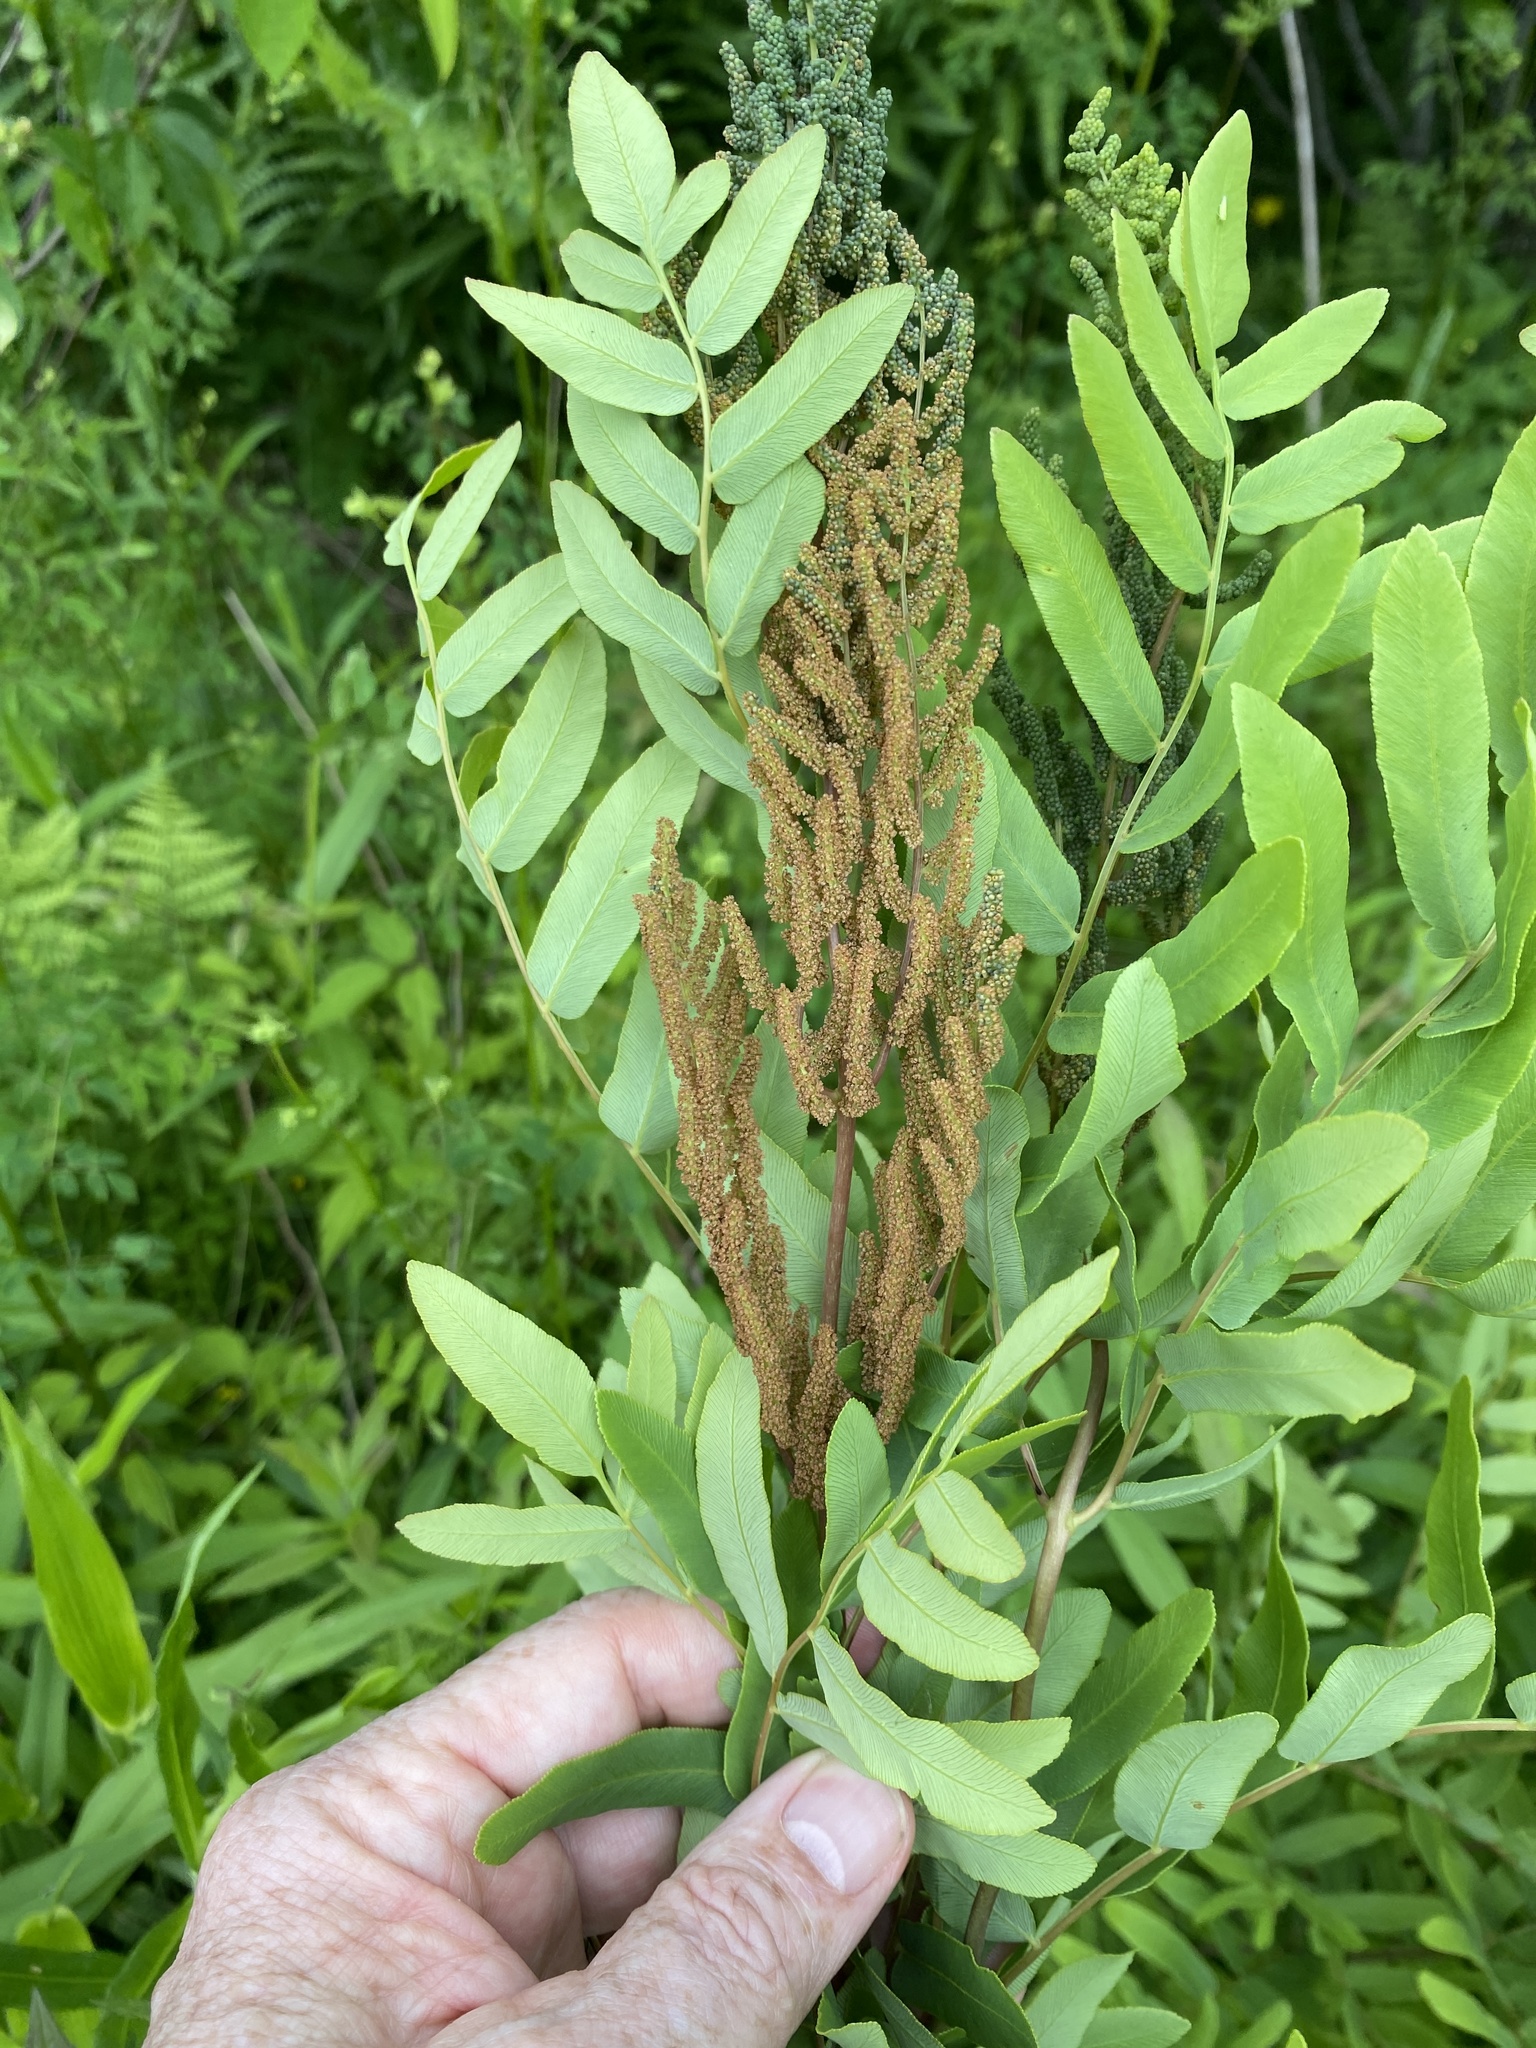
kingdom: Plantae
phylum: Tracheophyta
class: Polypodiopsida
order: Osmundales
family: Osmundaceae
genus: Osmunda
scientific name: Osmunda spectabilis
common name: American royal fern
